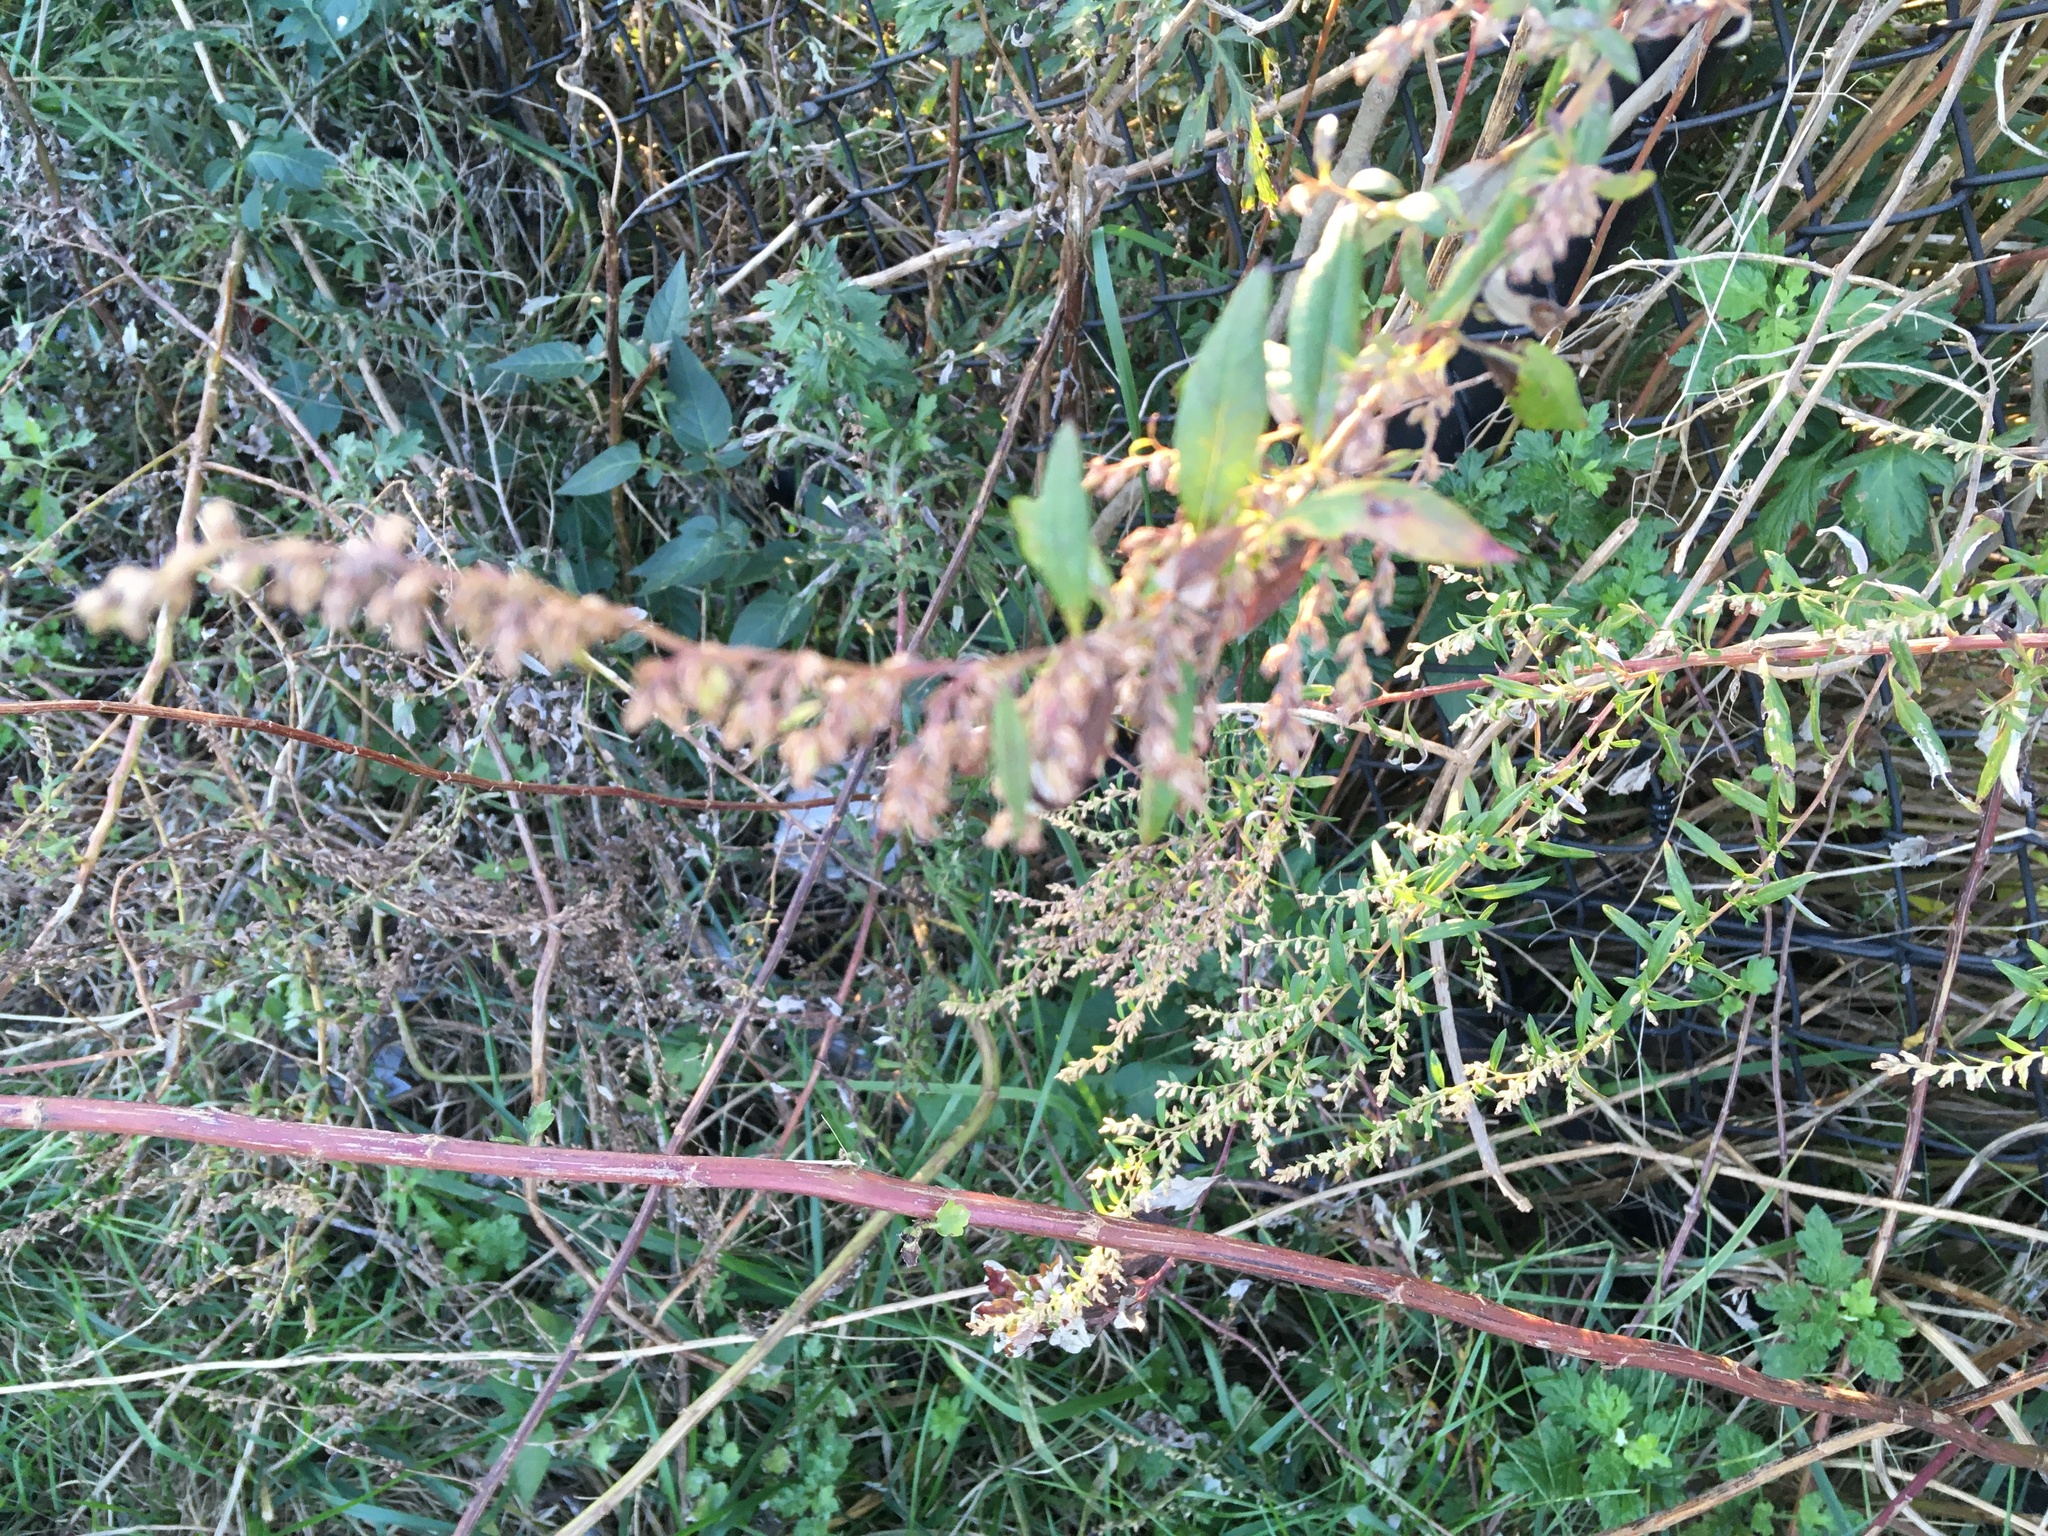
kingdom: Plantae
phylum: Tracheophyta
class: Magnoliopsida
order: Asterales
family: Asteraceae
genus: Artemisia
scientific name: Artemisia vulgaris
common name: Mugwort
